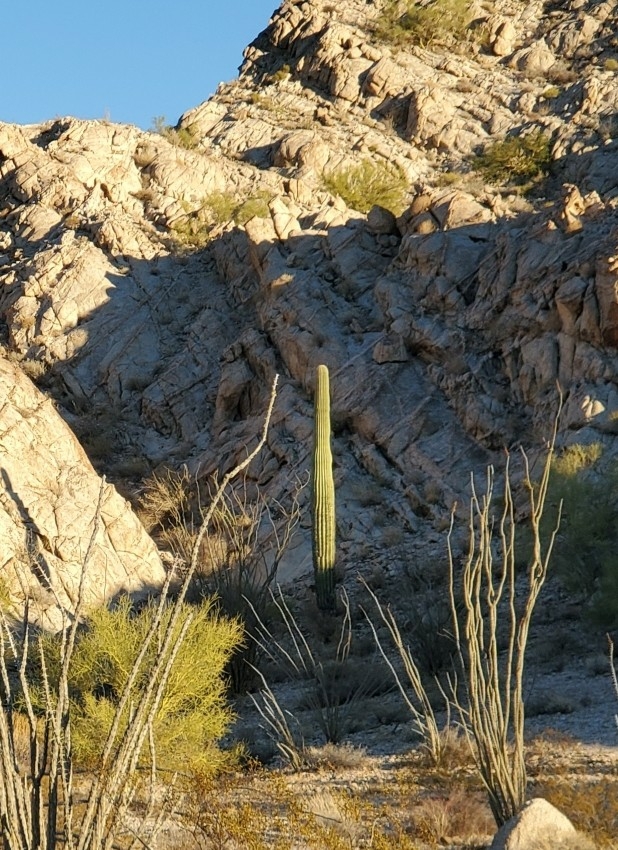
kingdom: Plantae
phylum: Tracheophyta
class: Magnoliopsida
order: Caryophyllales
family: Cactaceae
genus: Carnegiea
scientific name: Carnegiea gigantea
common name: Saguaro
